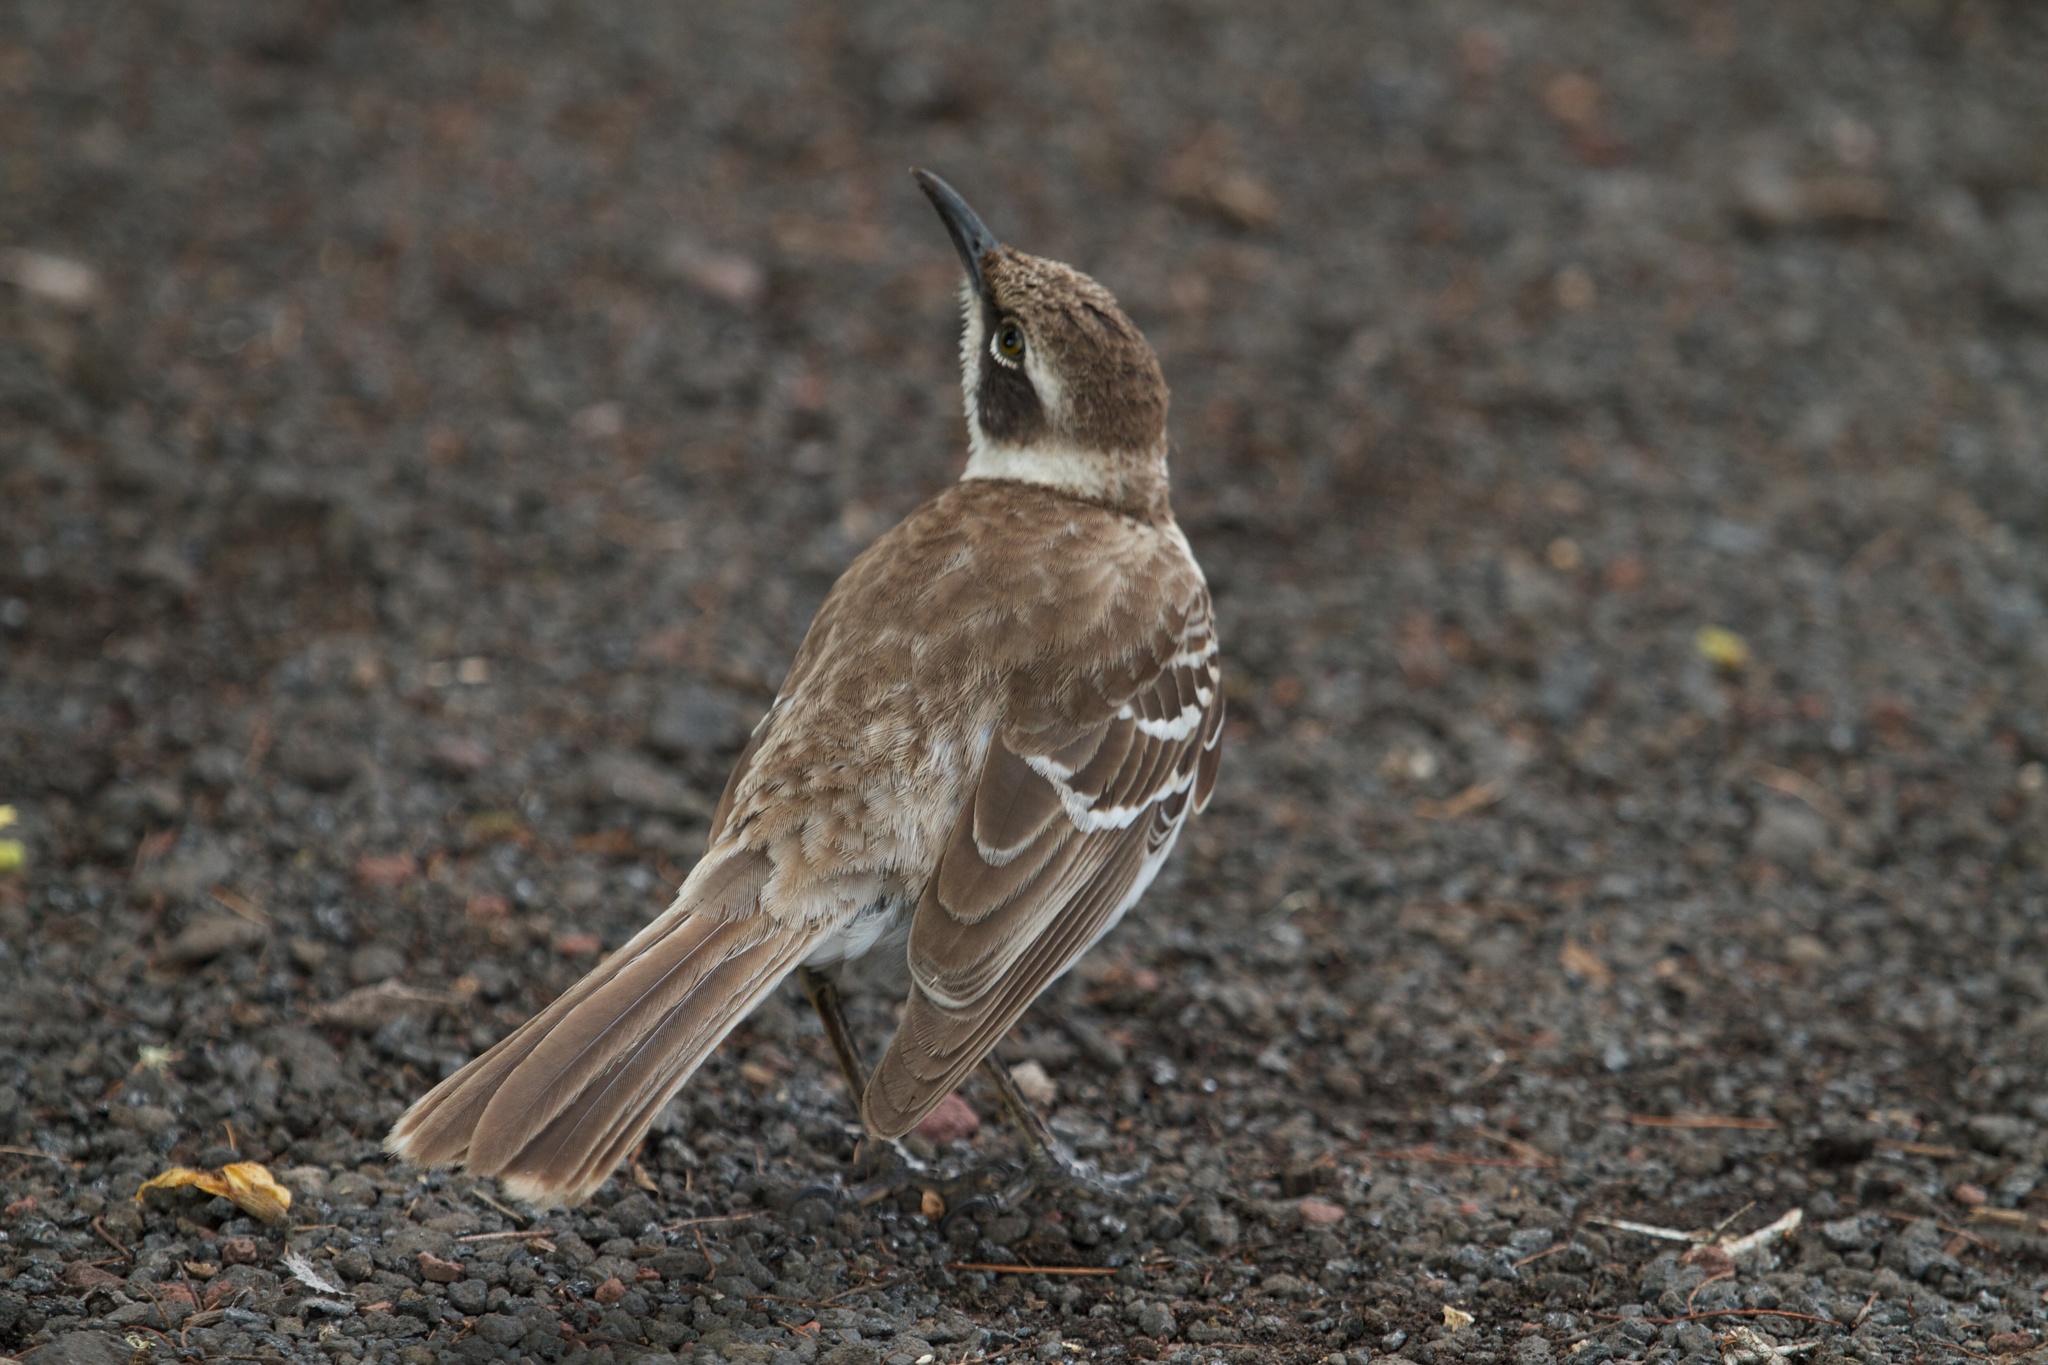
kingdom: Animalia
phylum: Chordata
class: Aves
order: Passeriformes
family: Mimidae
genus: Mimus
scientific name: Mimus parvulus
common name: Galapagos mockingbird
